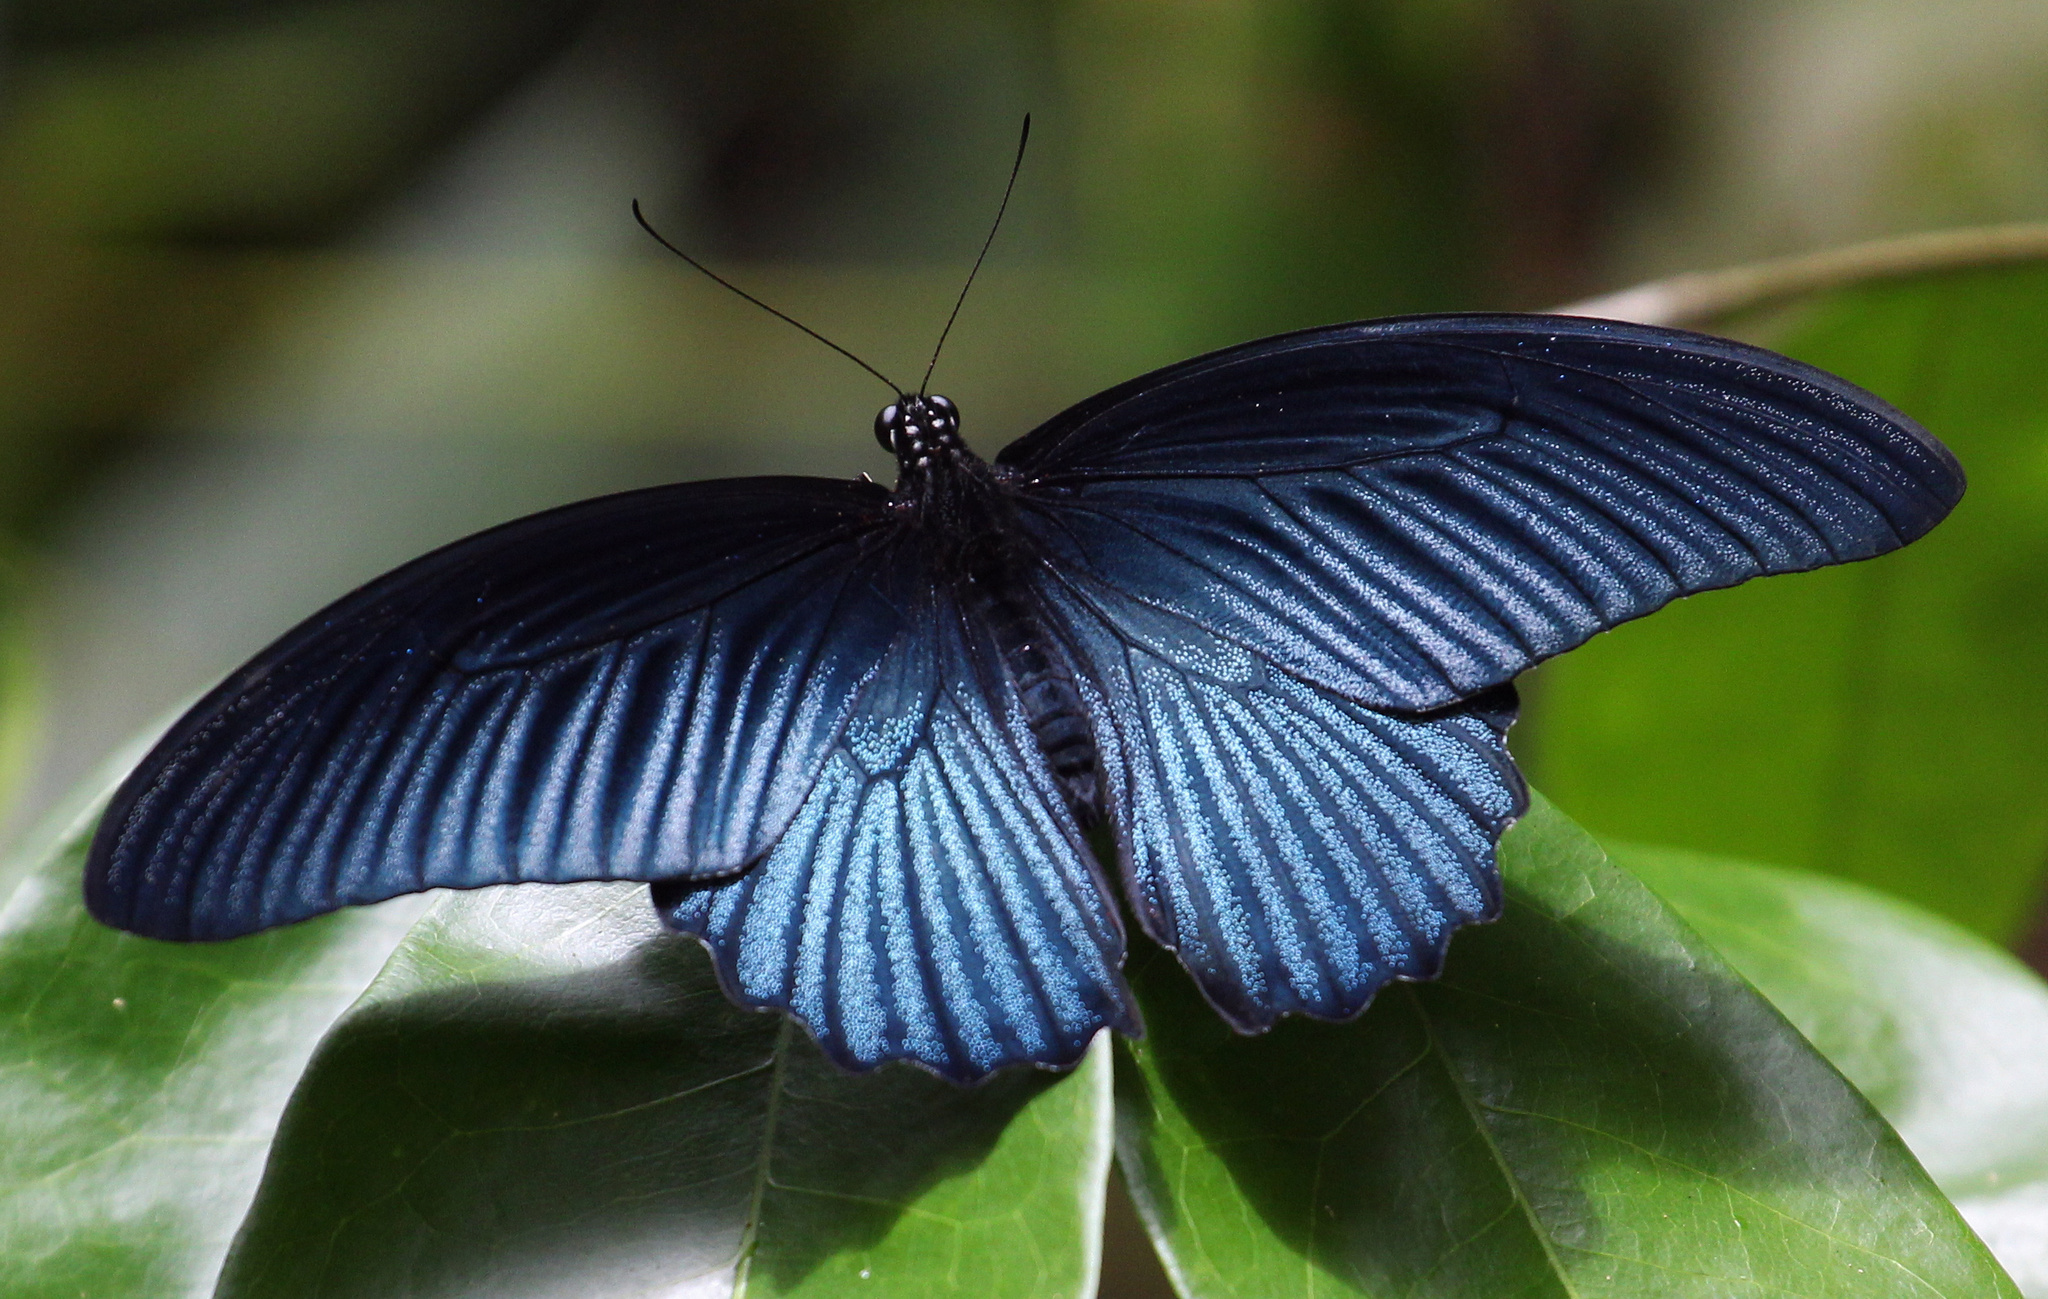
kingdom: Animalia
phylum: Arthropoda
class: Insecta
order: Lepidoptera
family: Papilionidae
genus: Papilio
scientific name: Papilio memnon
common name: Great mormon
